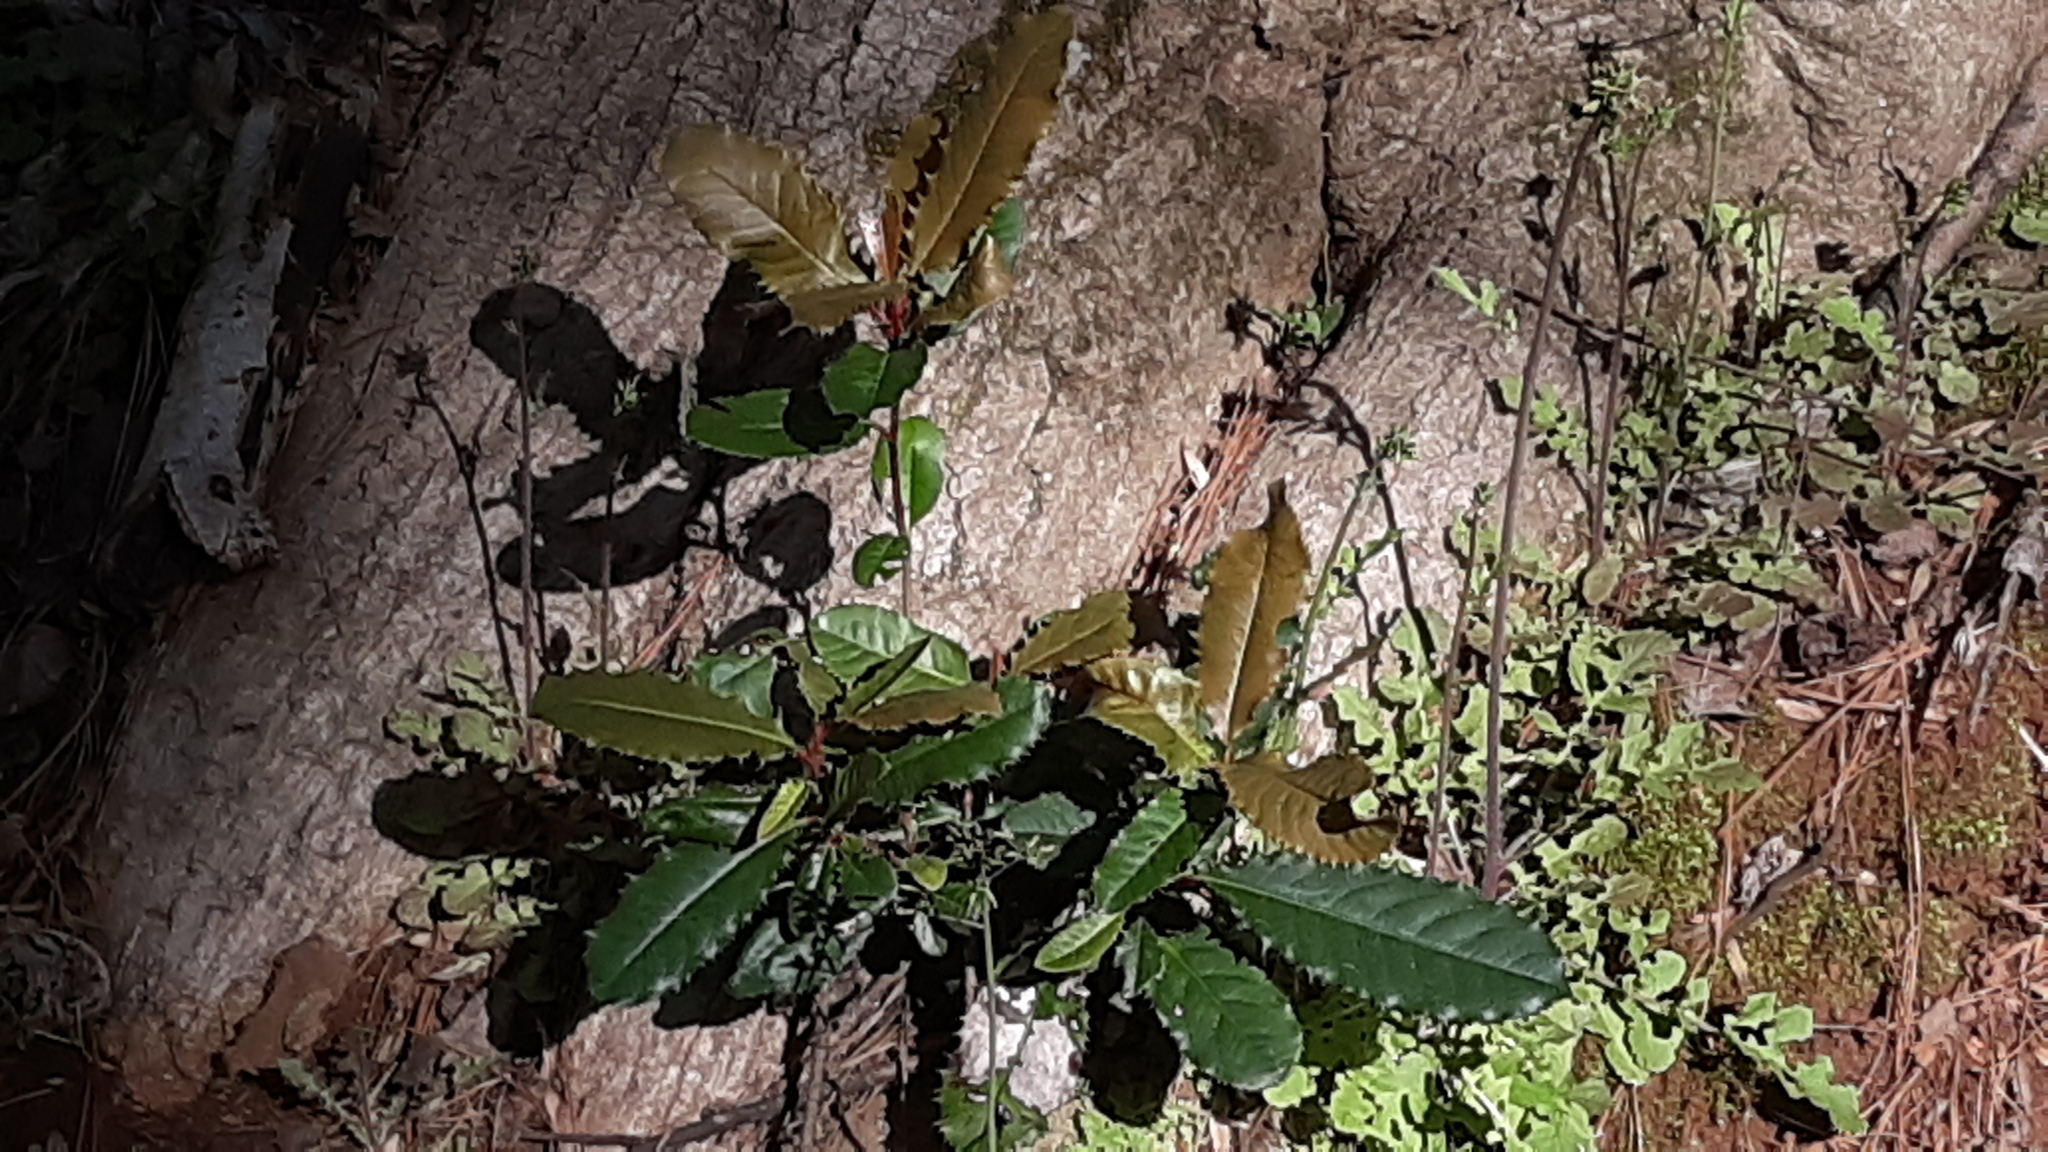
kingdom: Plantae
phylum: Tracheophyta
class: Magnoliopsida
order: Rosales
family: Rosaceae
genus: Photinia
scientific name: Photinia serratifolia
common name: Taiwanese photinia
